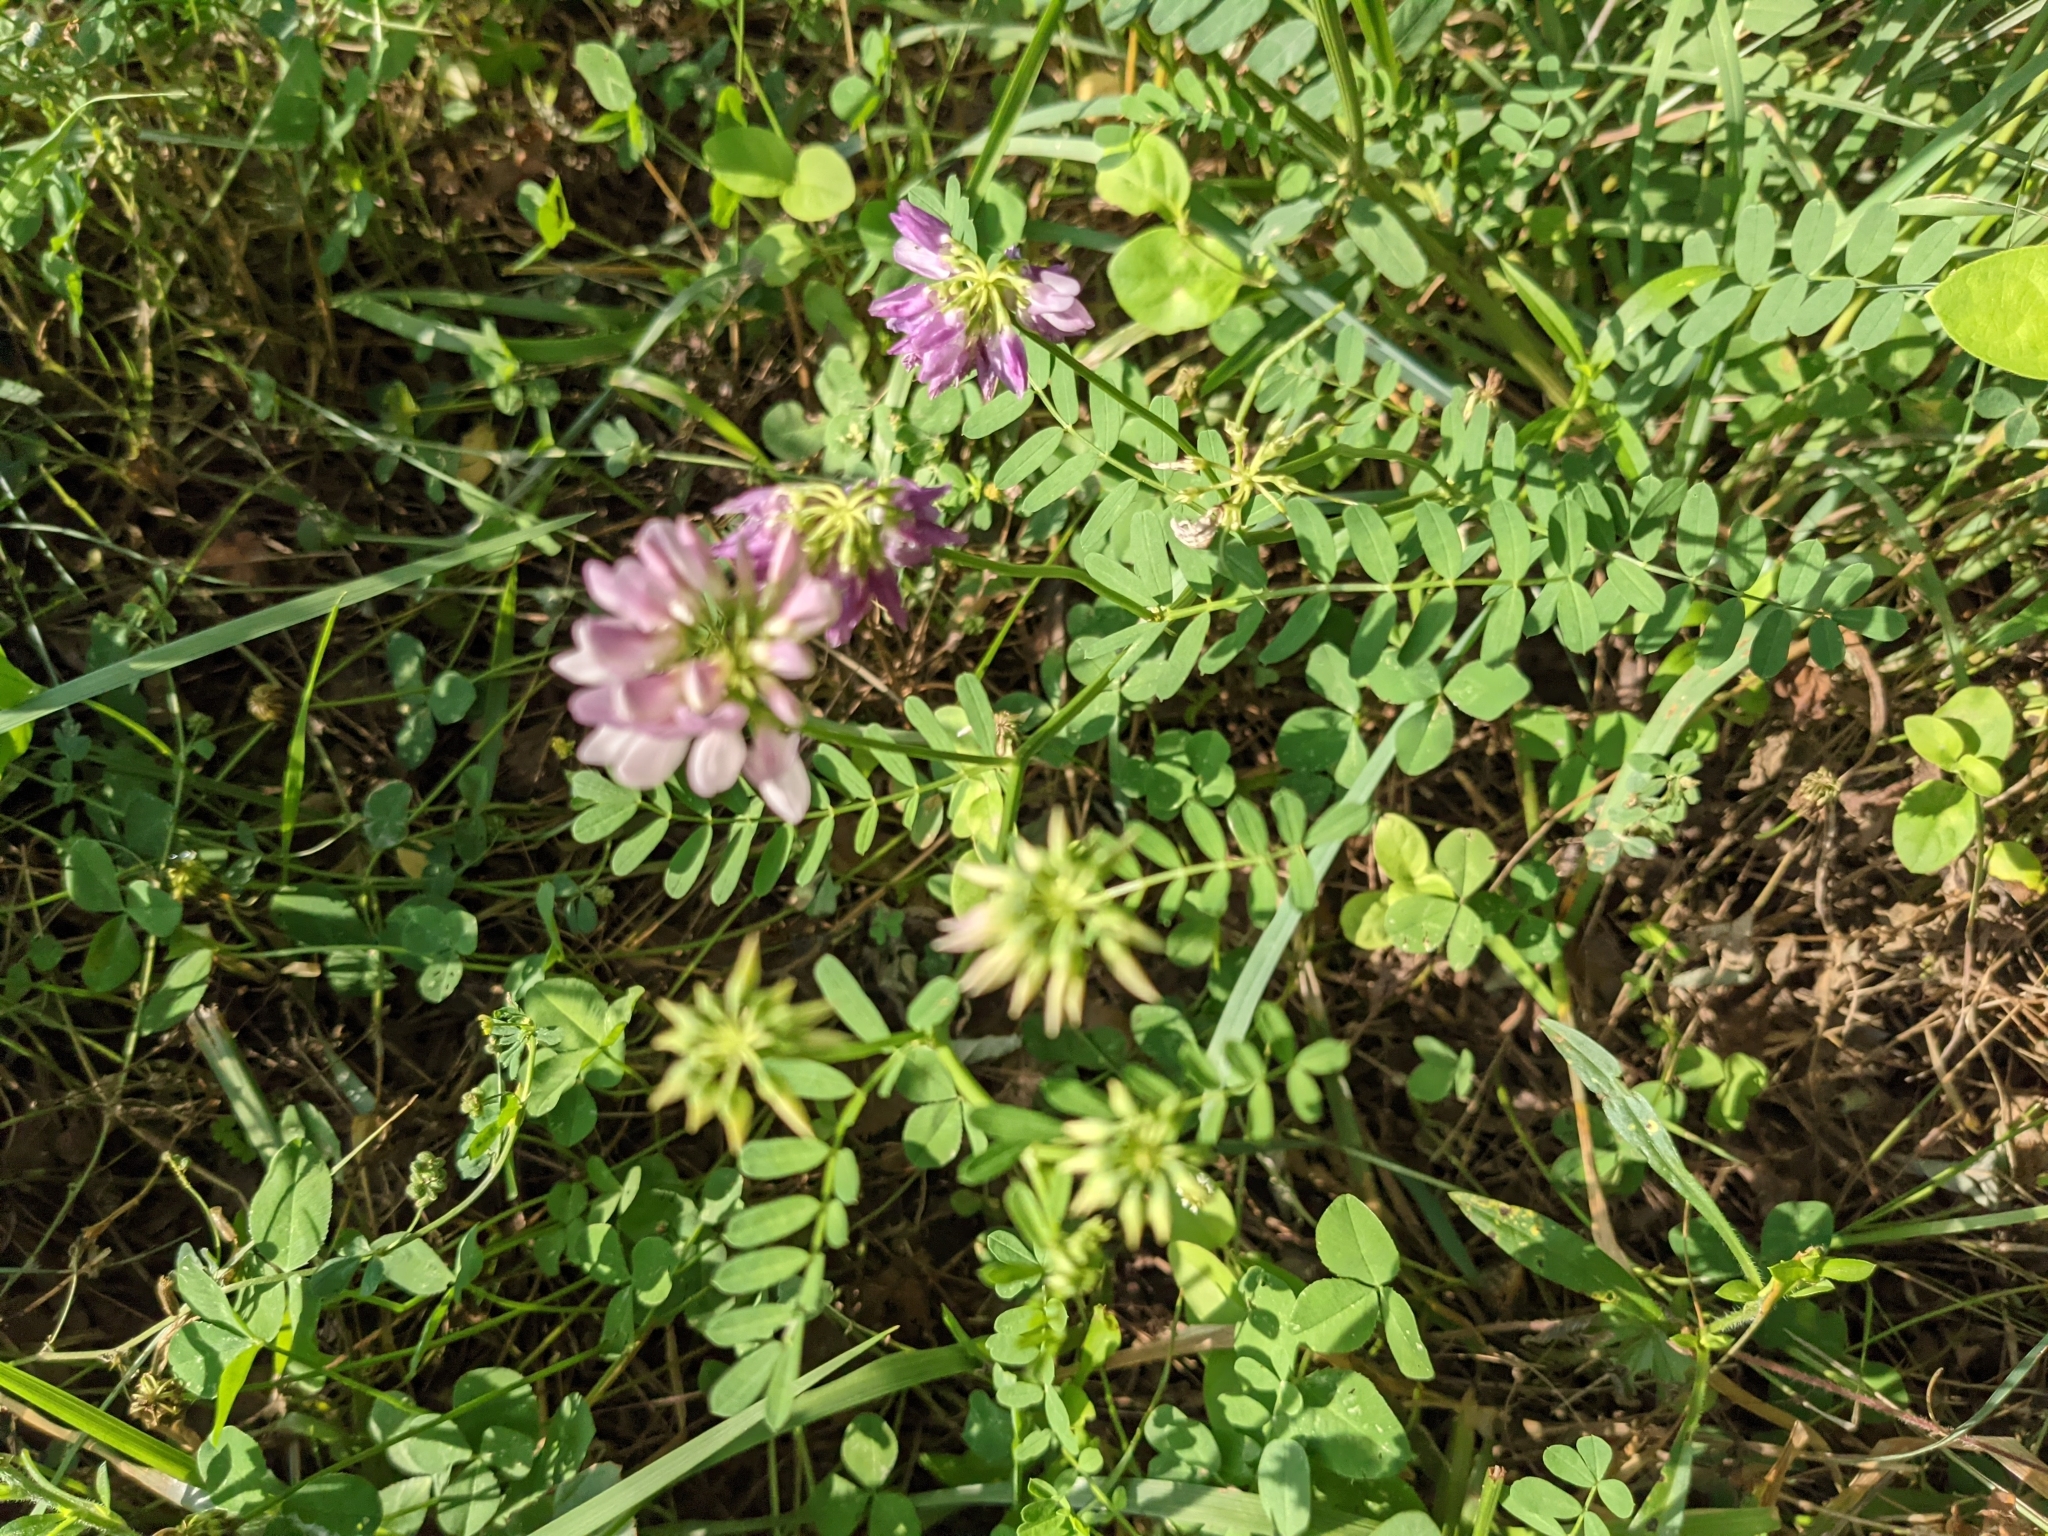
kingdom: Plantae
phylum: Tracheophyta
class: Magnoliopsida
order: Fabales
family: Fabaceae
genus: Coronilla
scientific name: Coronilla varia
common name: Crownvetch
